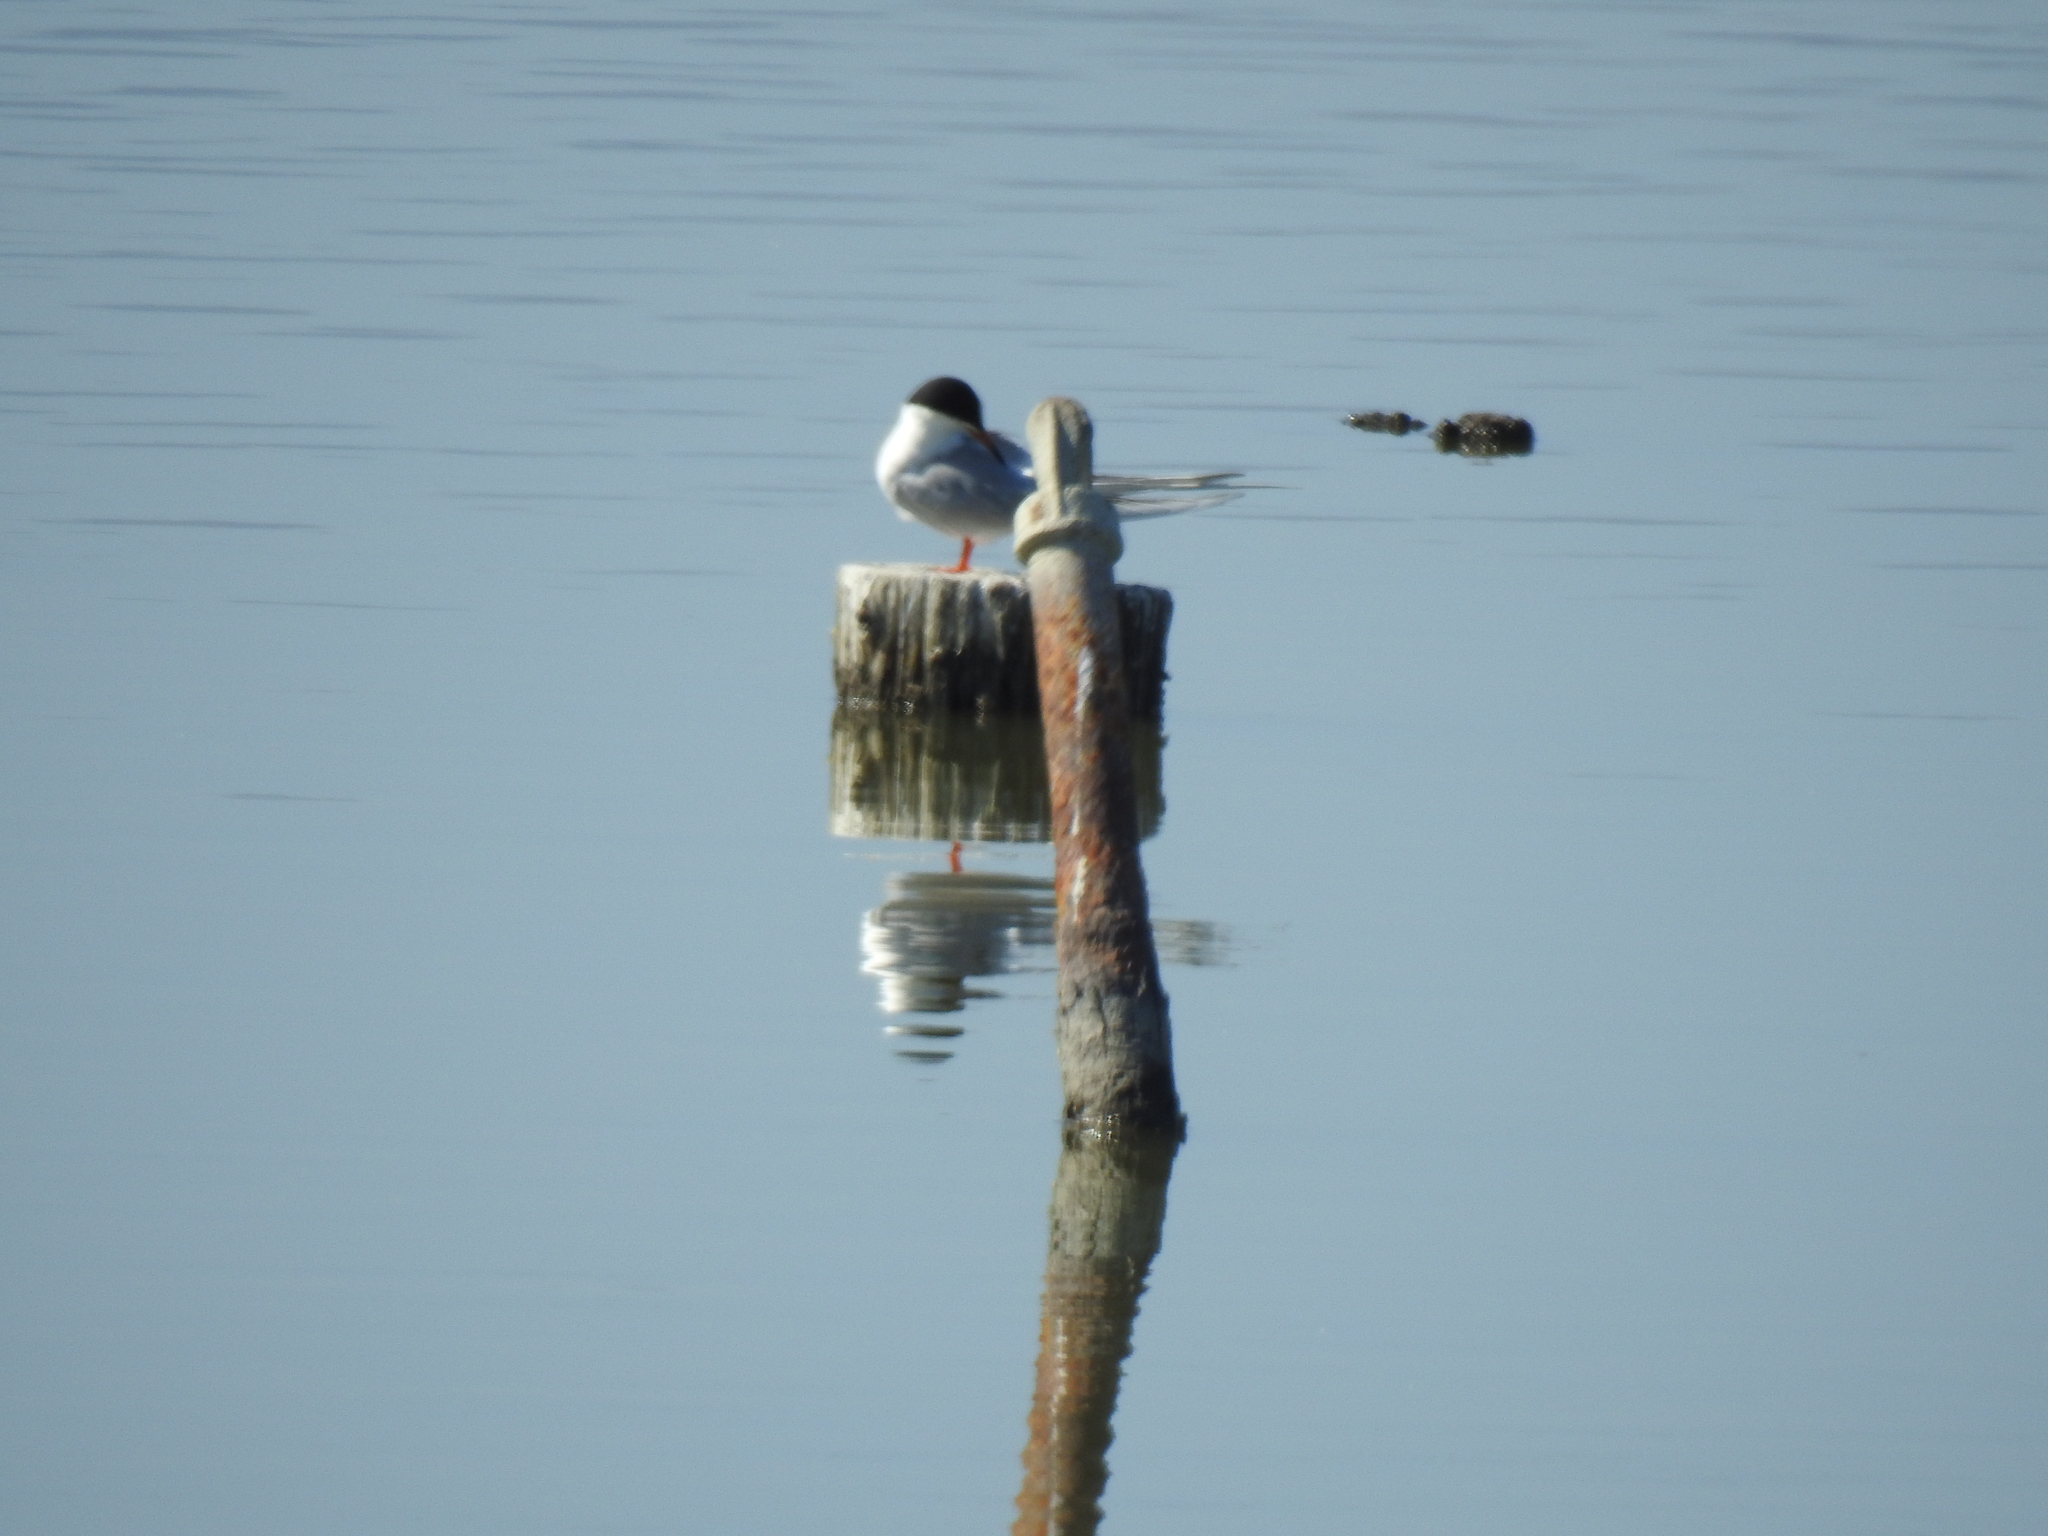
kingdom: Animalia
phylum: Chordata
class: Aves
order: Charadriiformes
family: Laridae
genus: Sterna
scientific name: Sterna forsteri
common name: Forster's tern
